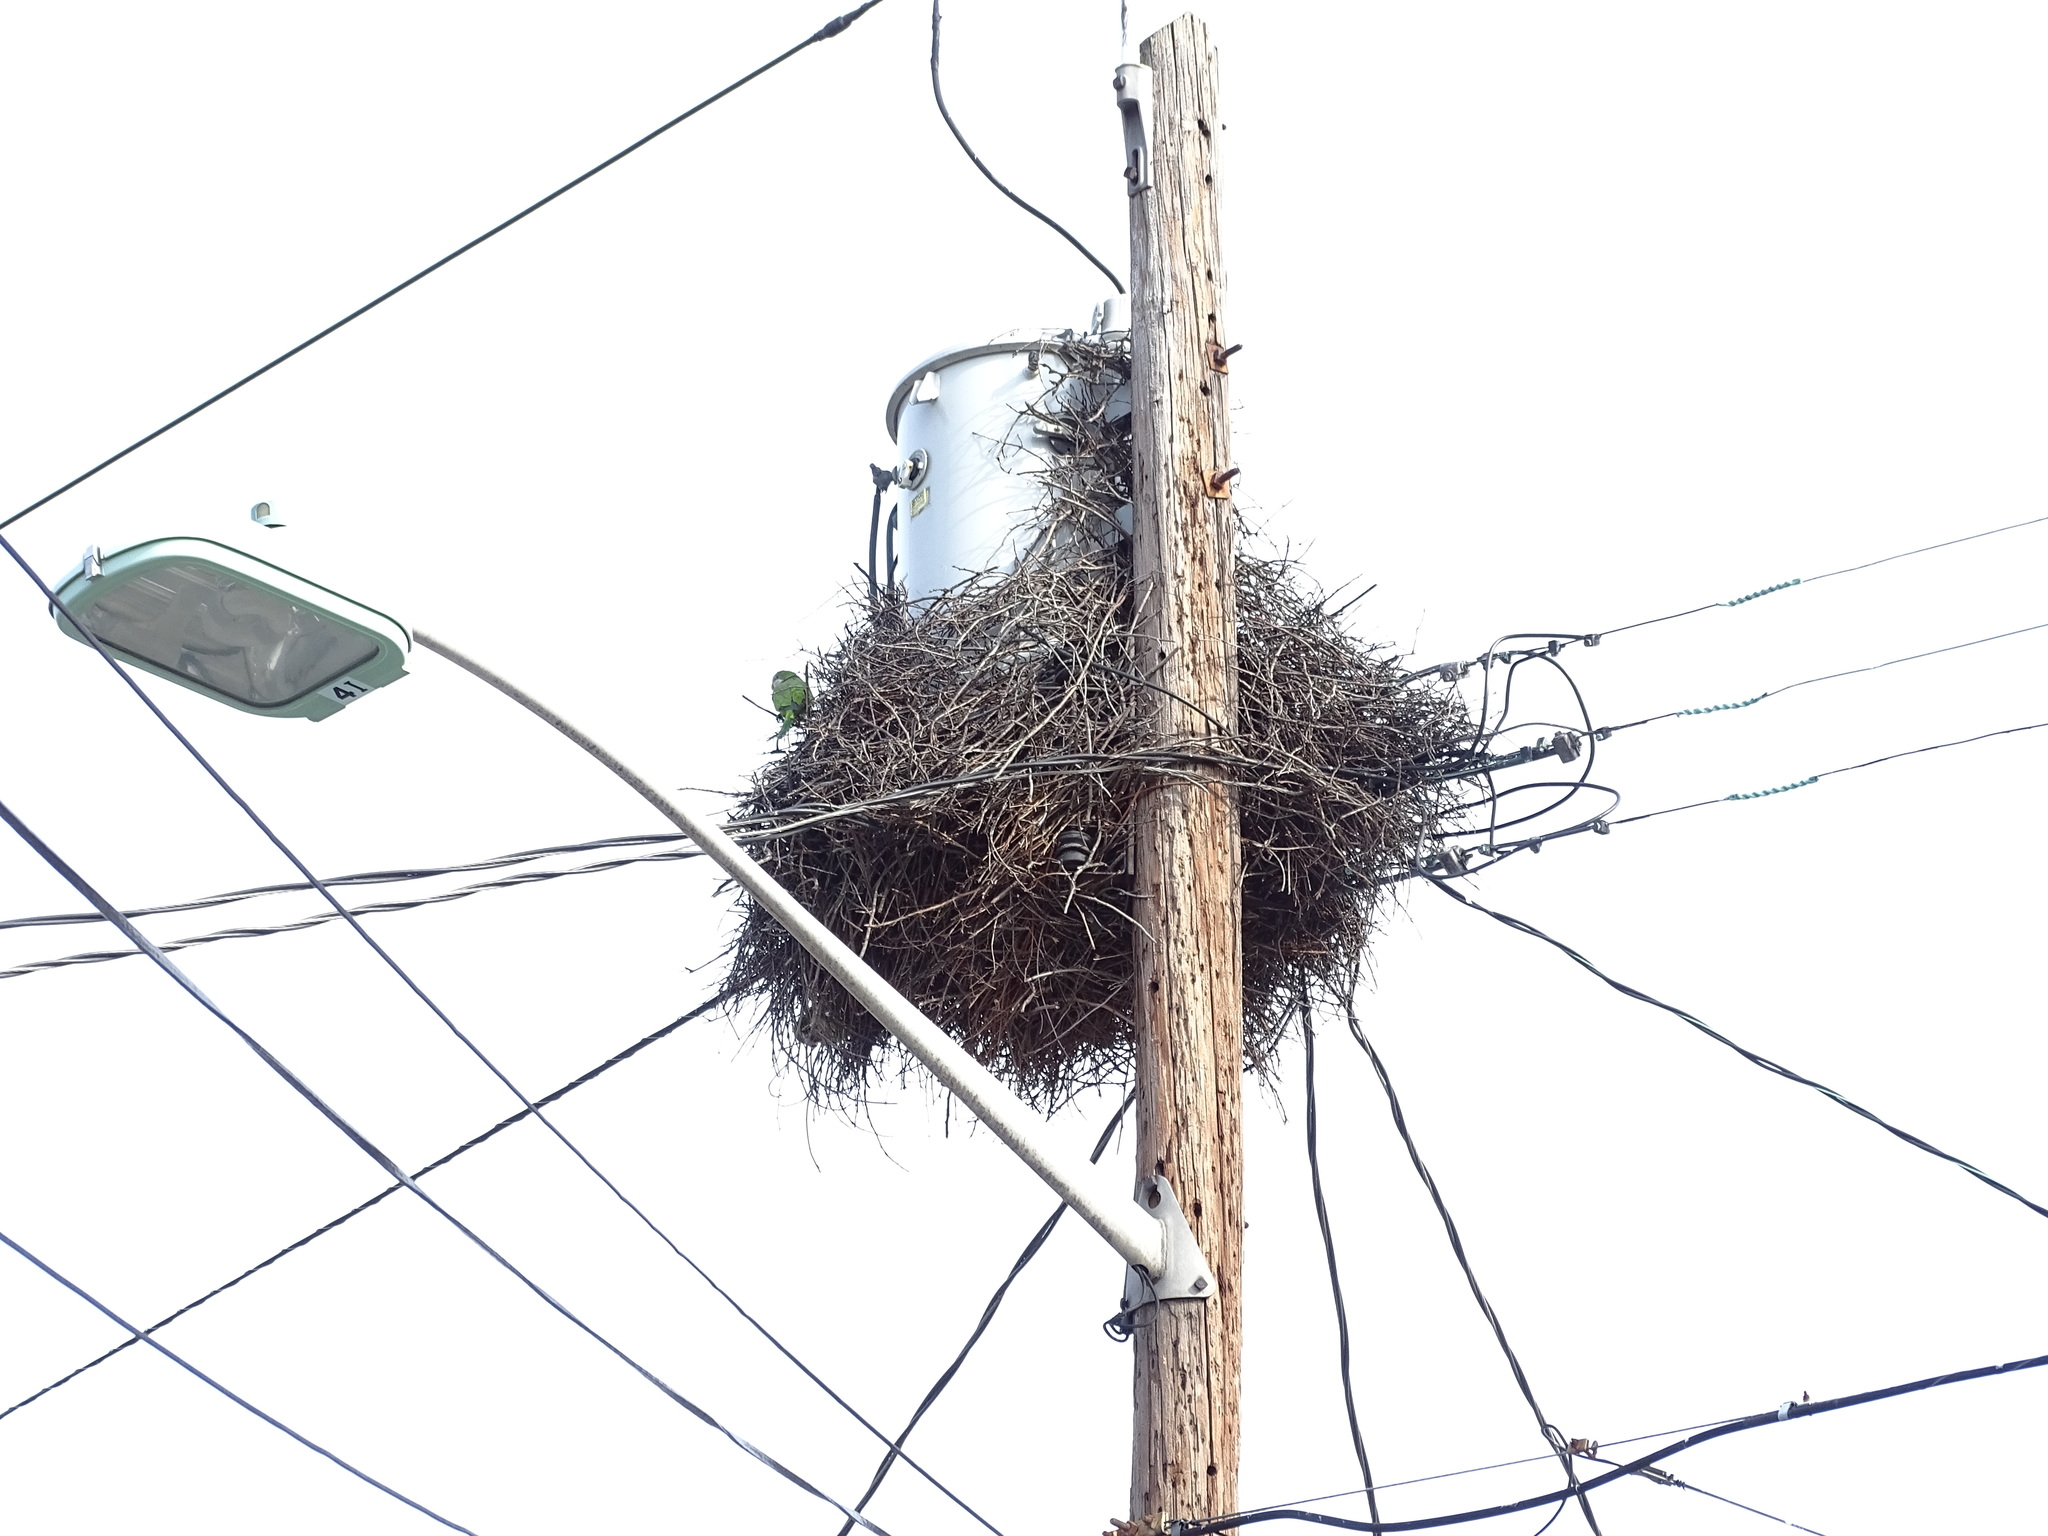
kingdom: Animalia
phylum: Chordata
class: Aves
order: Psittaciformes
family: Psittacidae
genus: Myiopsitta
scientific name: Myiopsitta monachus
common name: Monk parakeet
